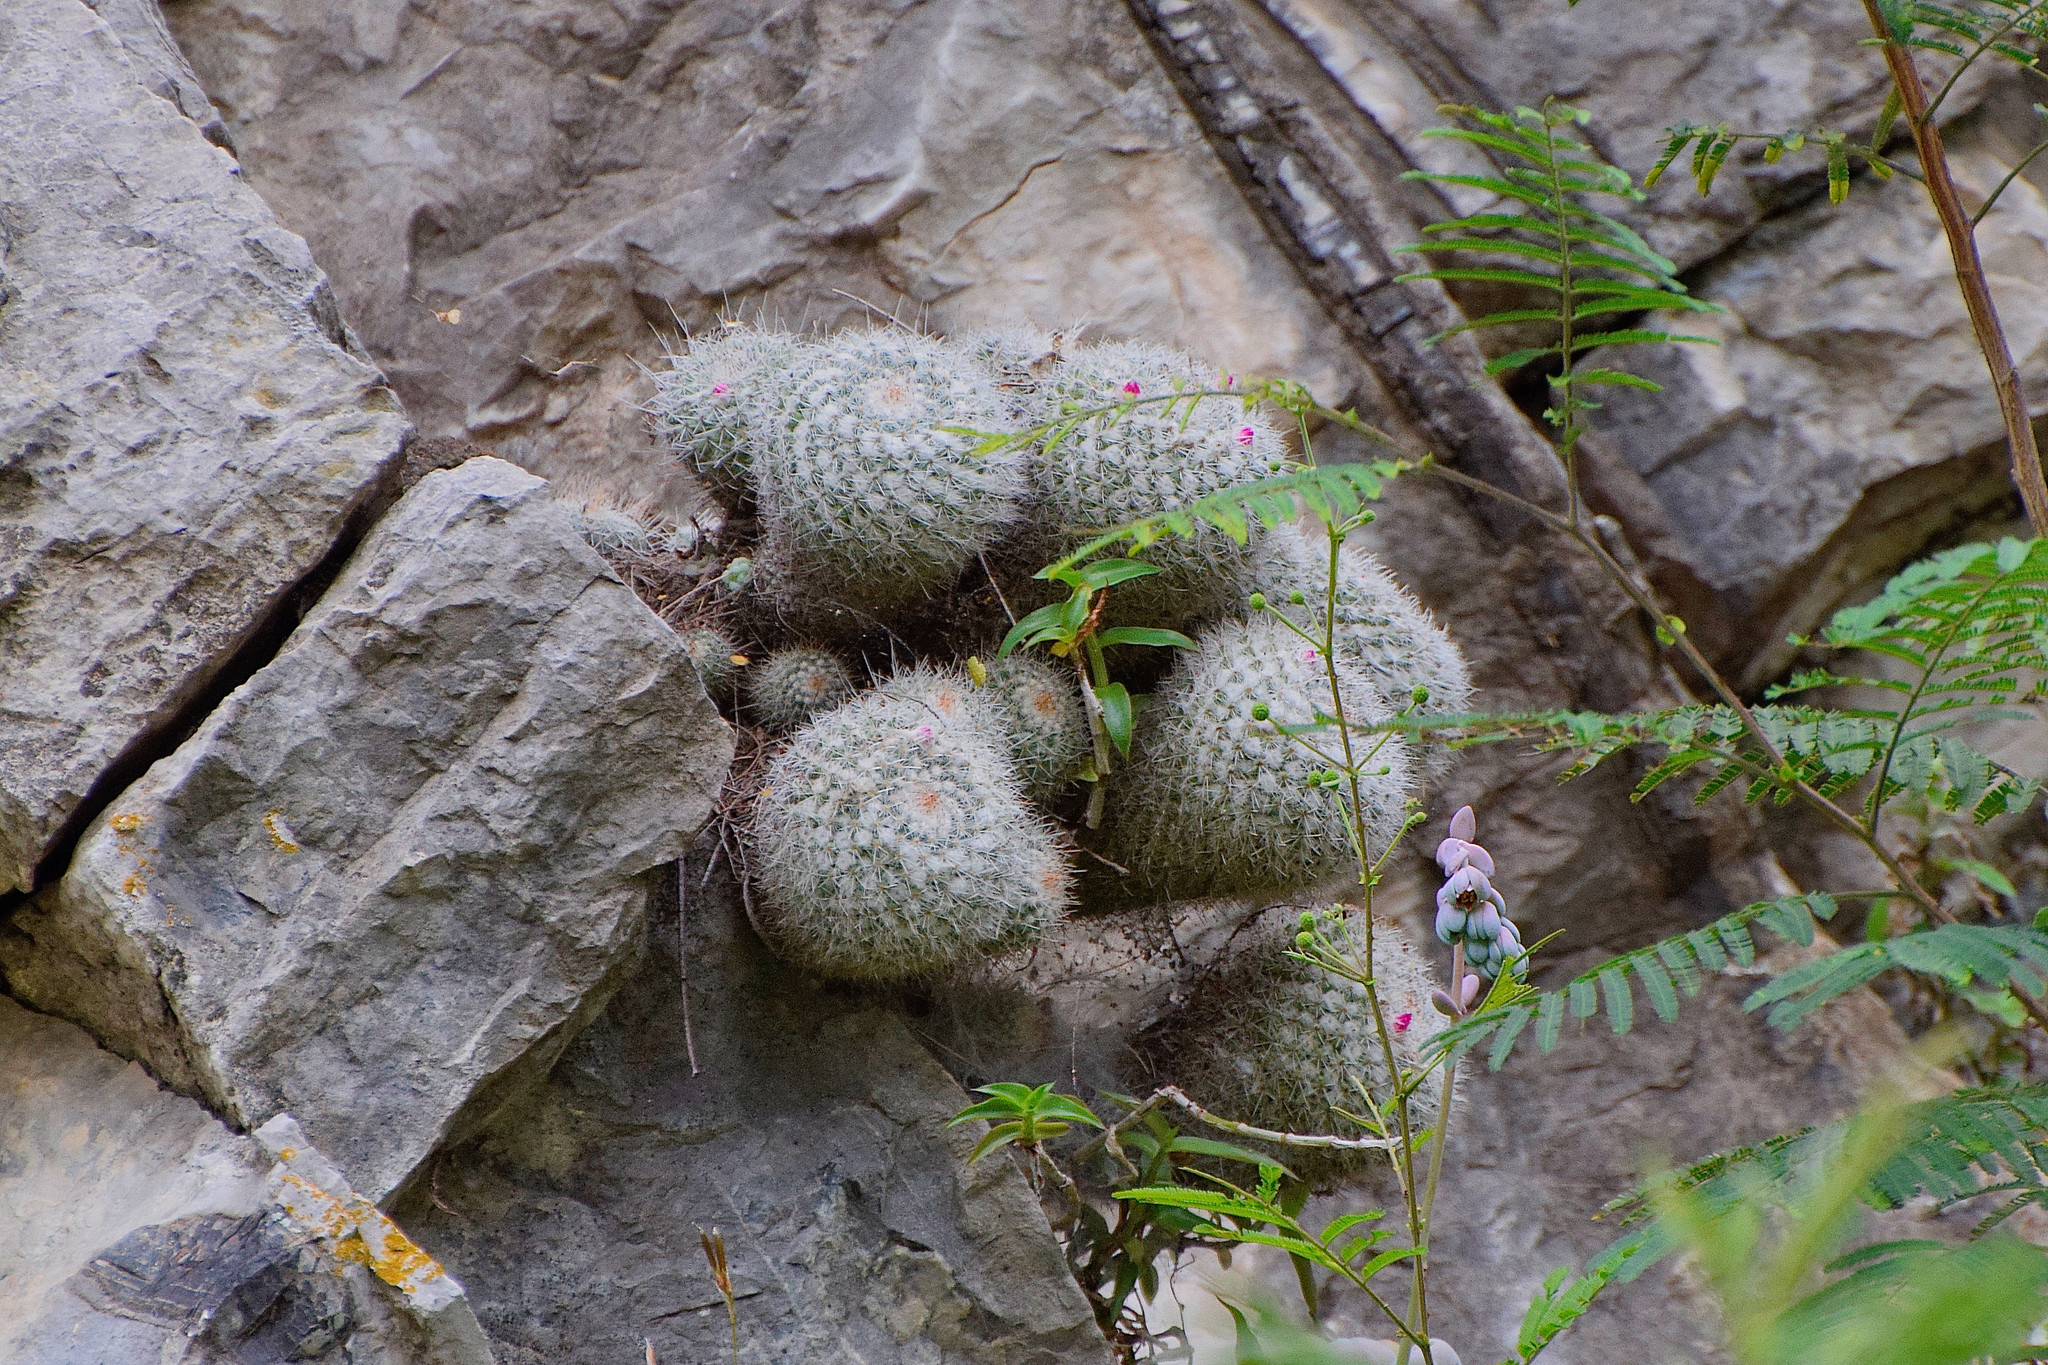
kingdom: Plantae
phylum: Tracheophyta
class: Magnoliopsida
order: Caryophyllales
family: Cactaceae
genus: Mammillaria
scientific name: Mammillaria geminispina
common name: Whitey
